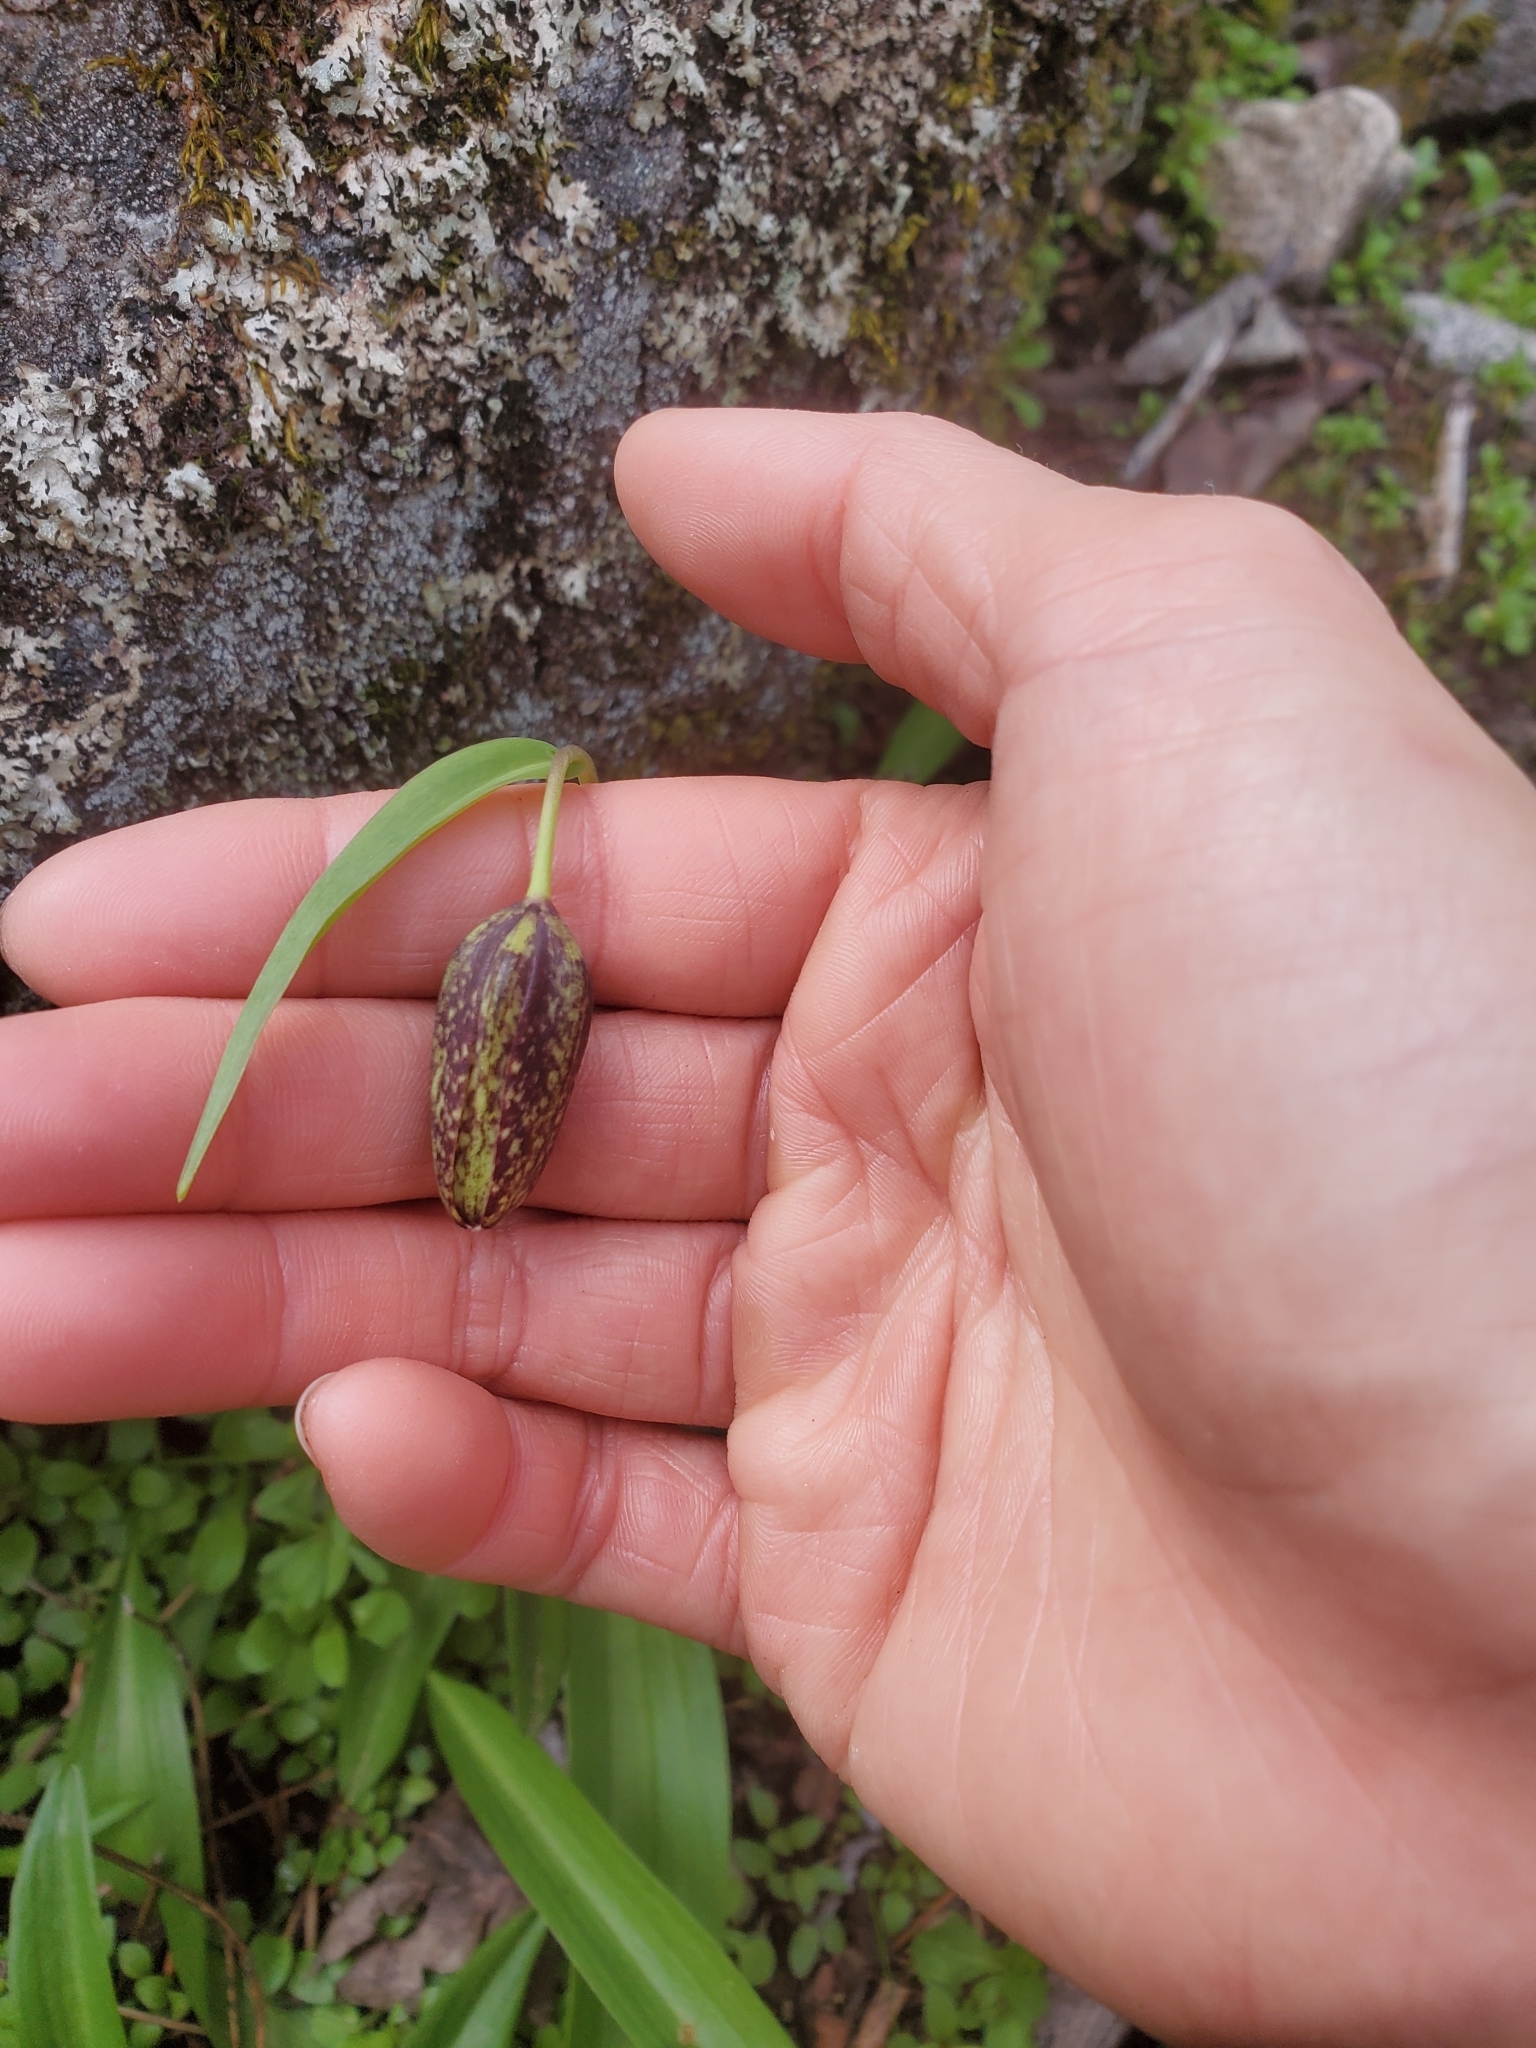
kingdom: Plantae
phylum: Tracheophyta
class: Liliopsida
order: Liliales
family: Liliaceae
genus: Fritillaria
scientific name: Fritillaria affinis
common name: Ojai fritillary
